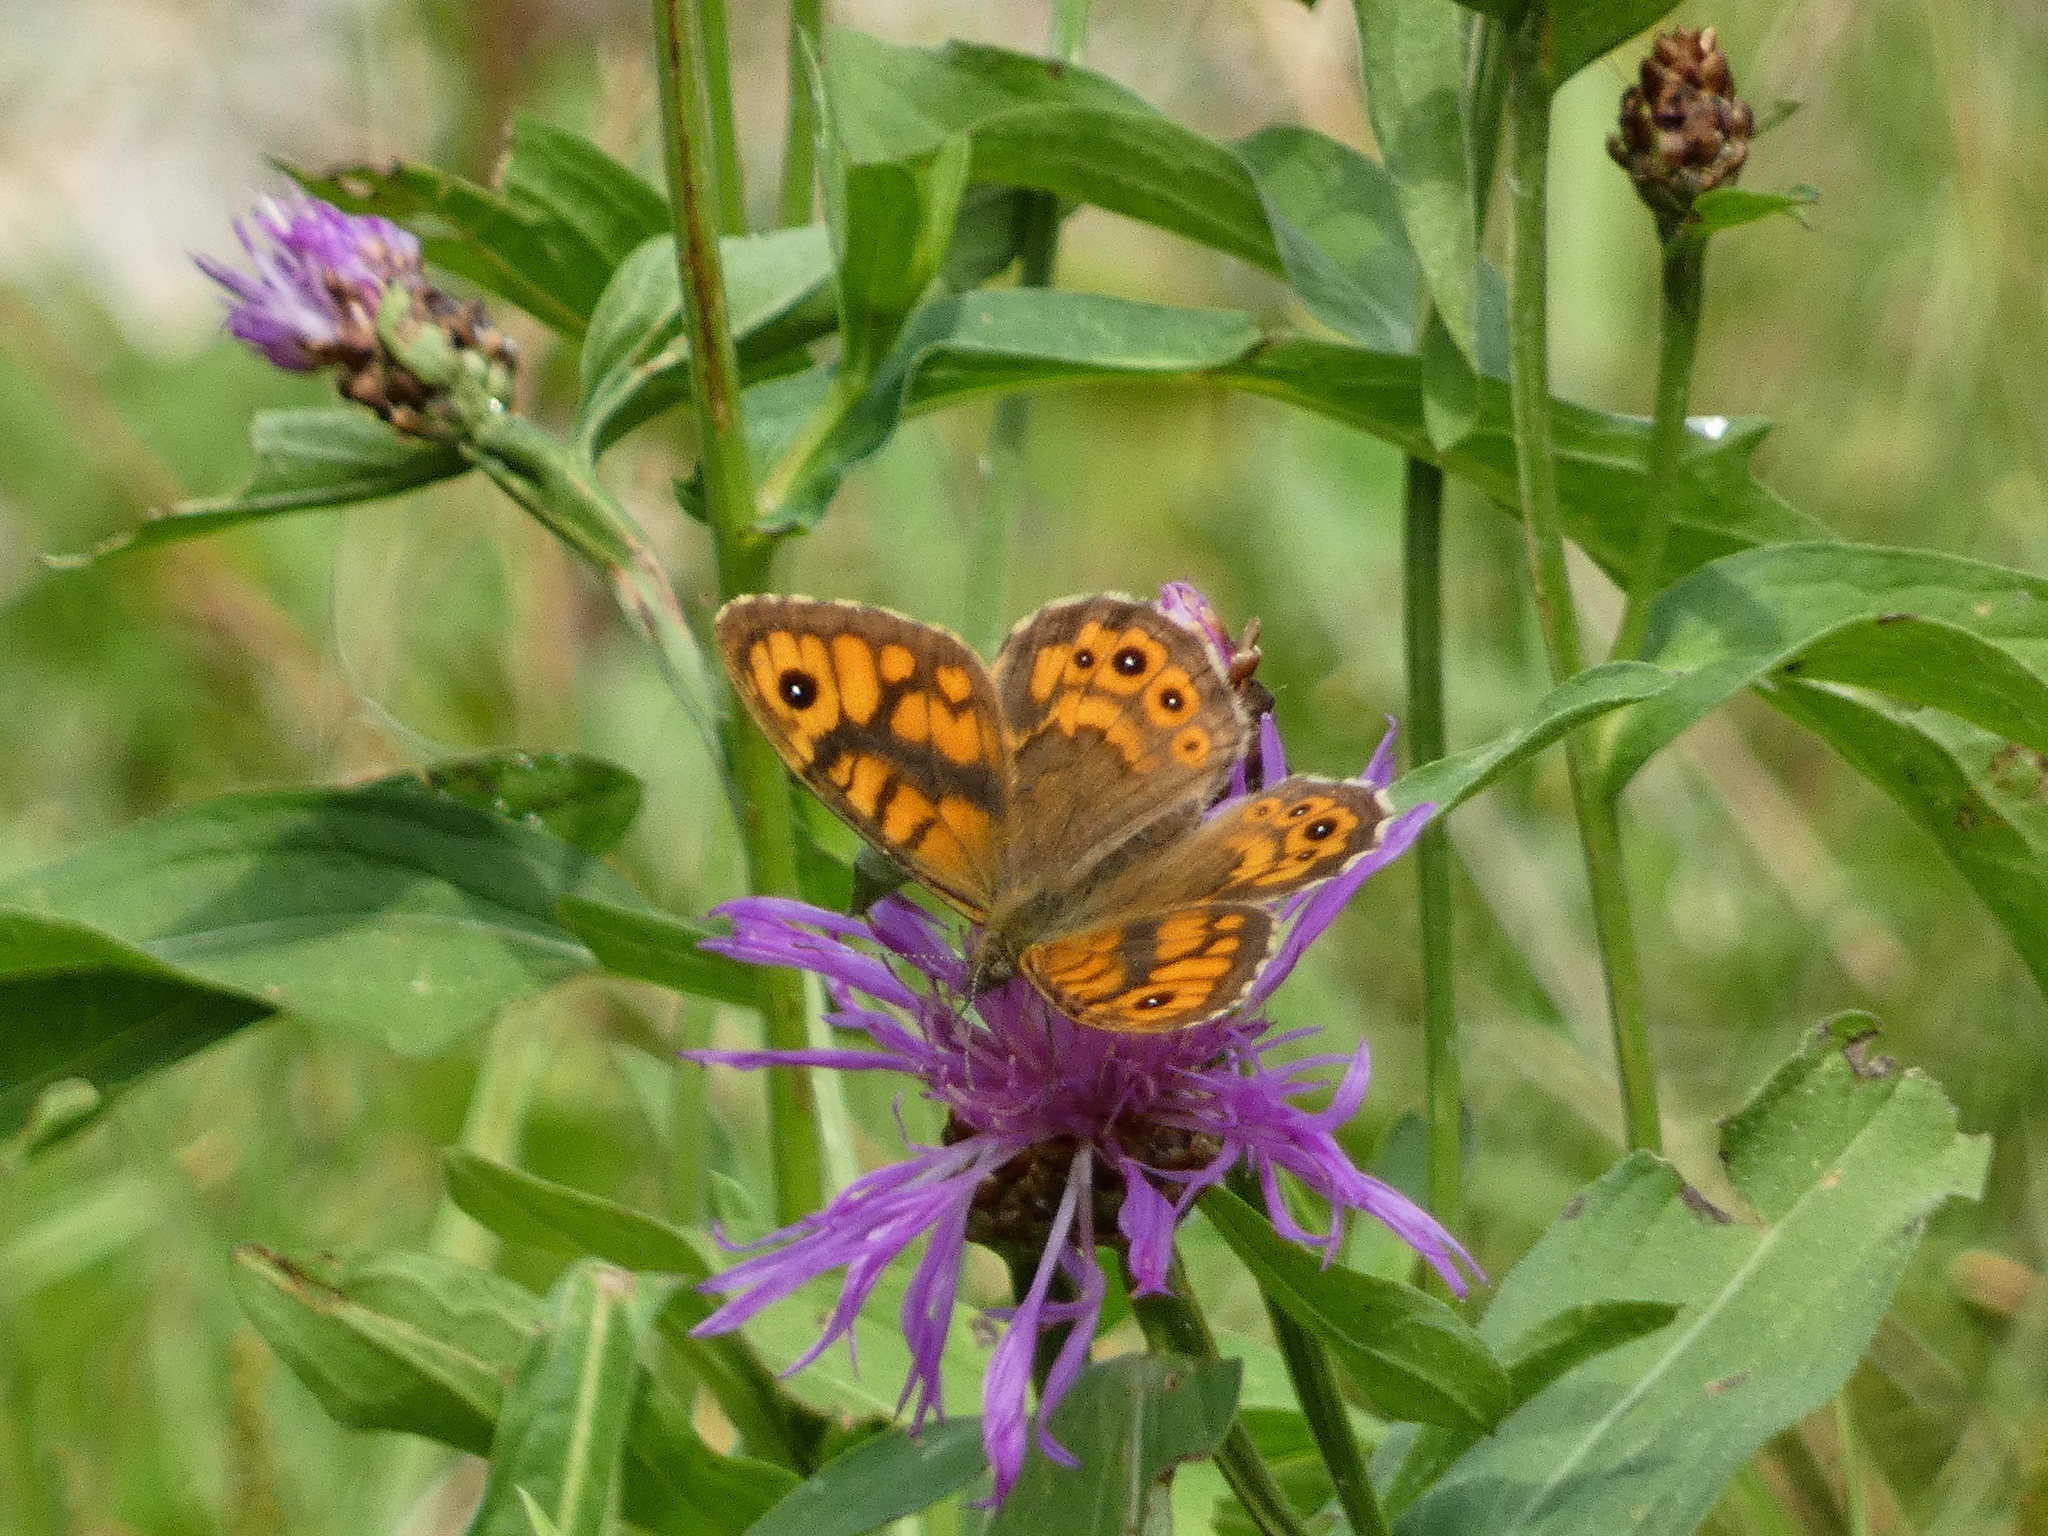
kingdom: Animalia
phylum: Arthropoda
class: Insecta
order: Lepidoptera
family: Nymphalidae
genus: Pararge
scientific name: Pararge Lasiommata megera
